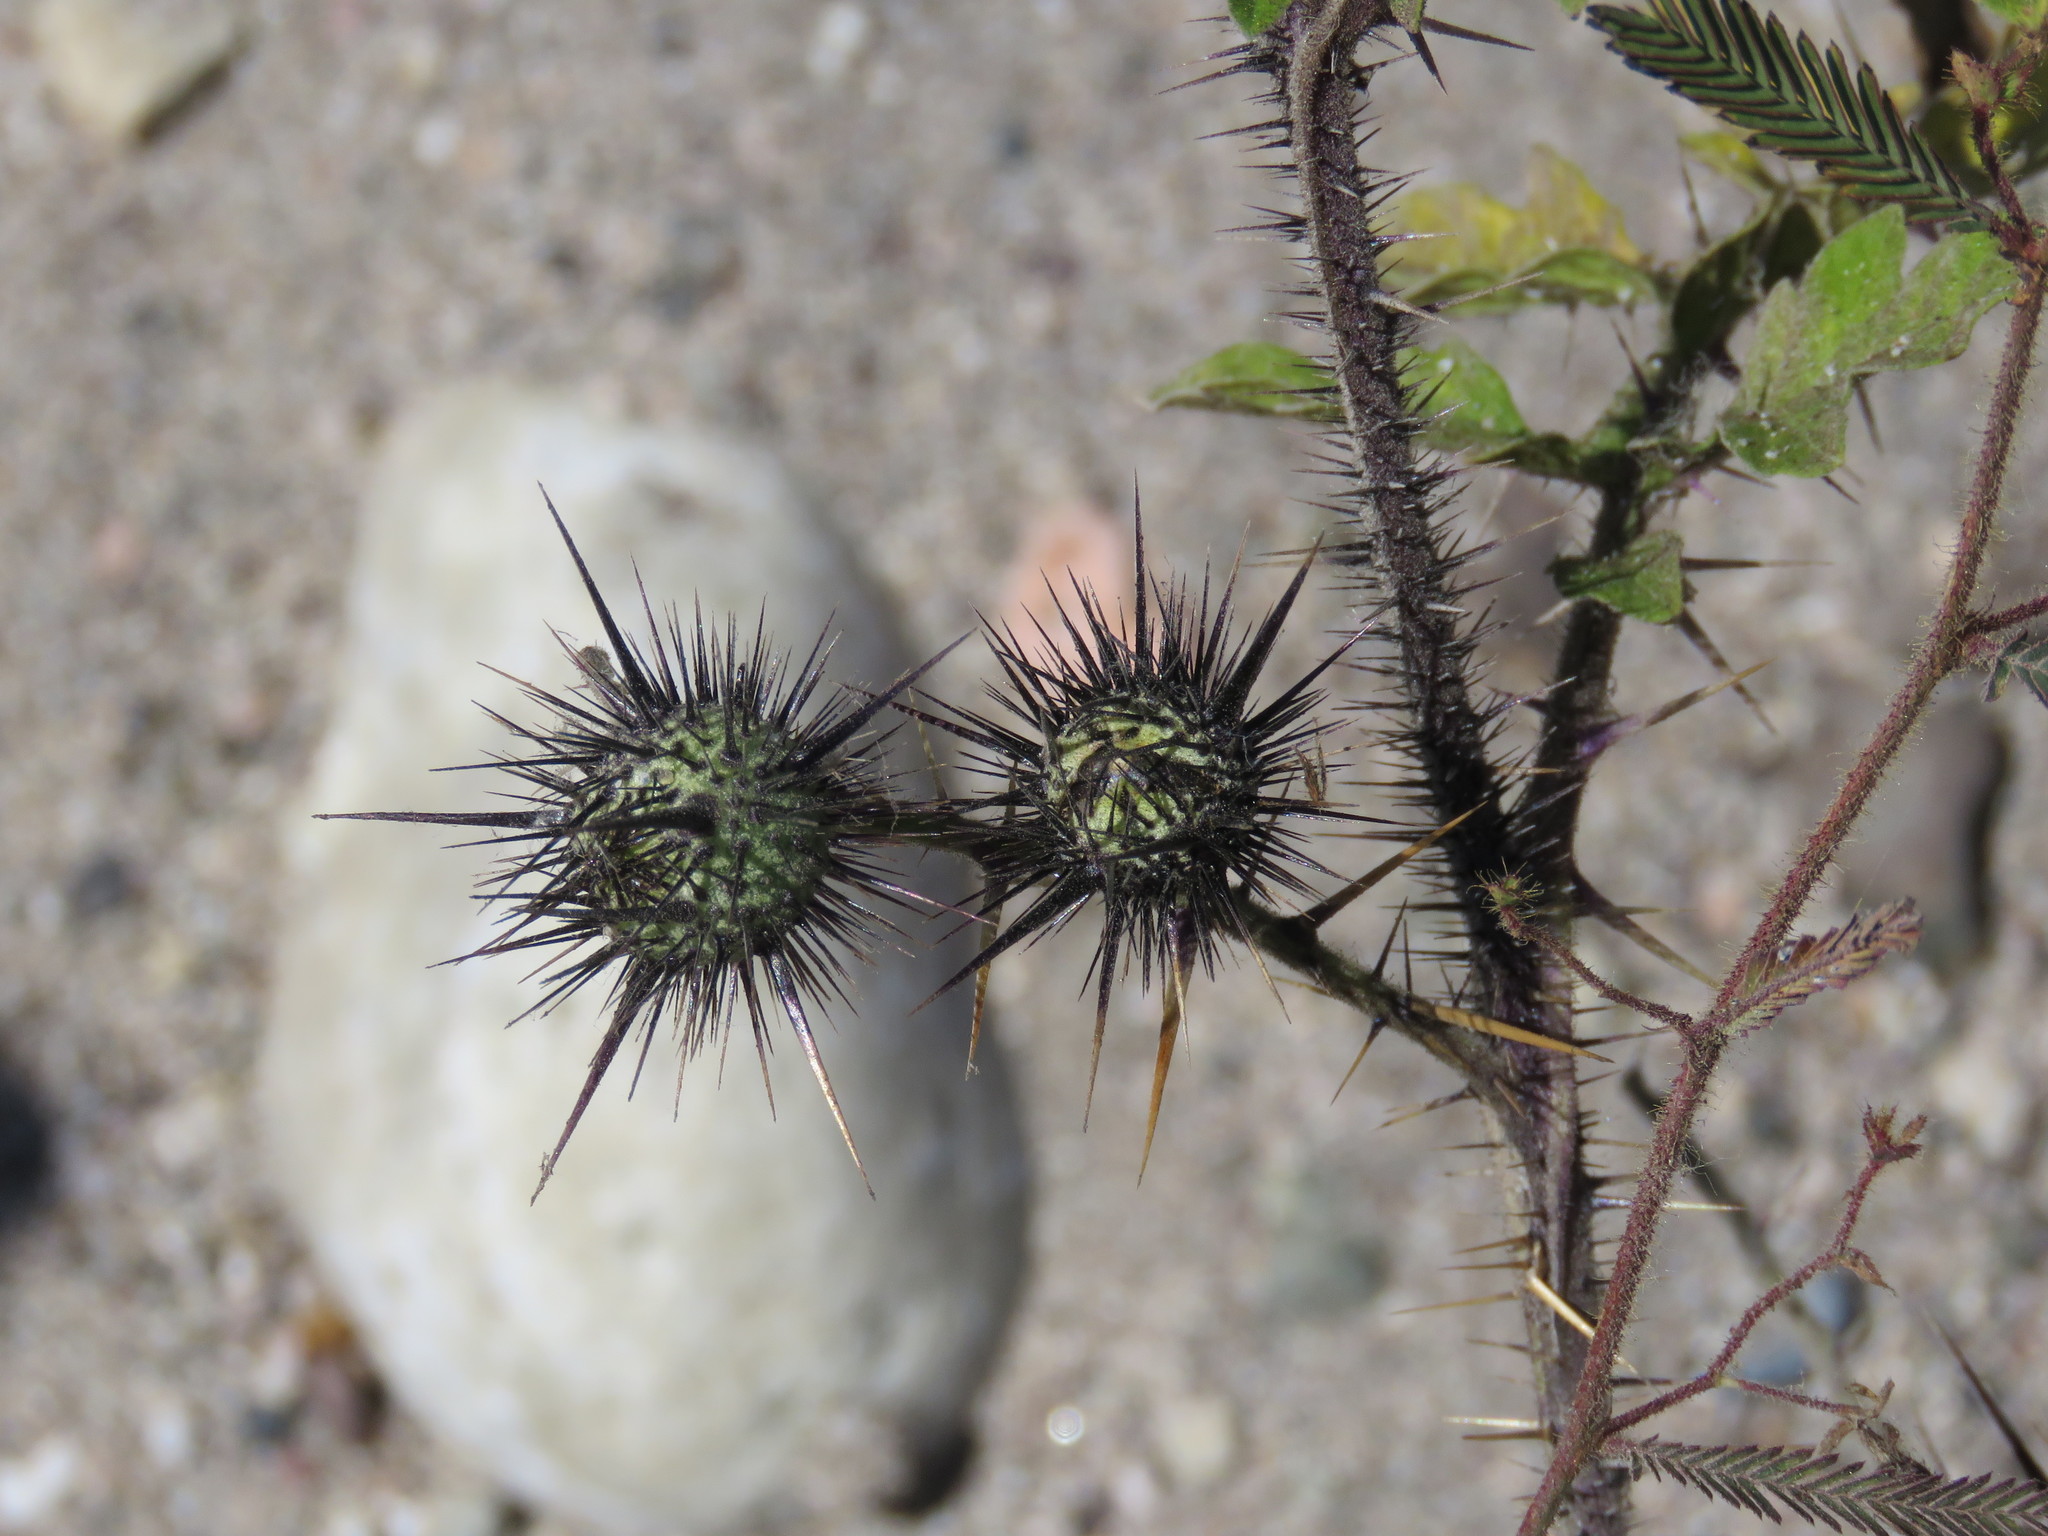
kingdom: Plantae
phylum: Tracheophyta
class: Magnoliopsida
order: Solanales
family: Solanaceae
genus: Solanum
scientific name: Solanum grayi
